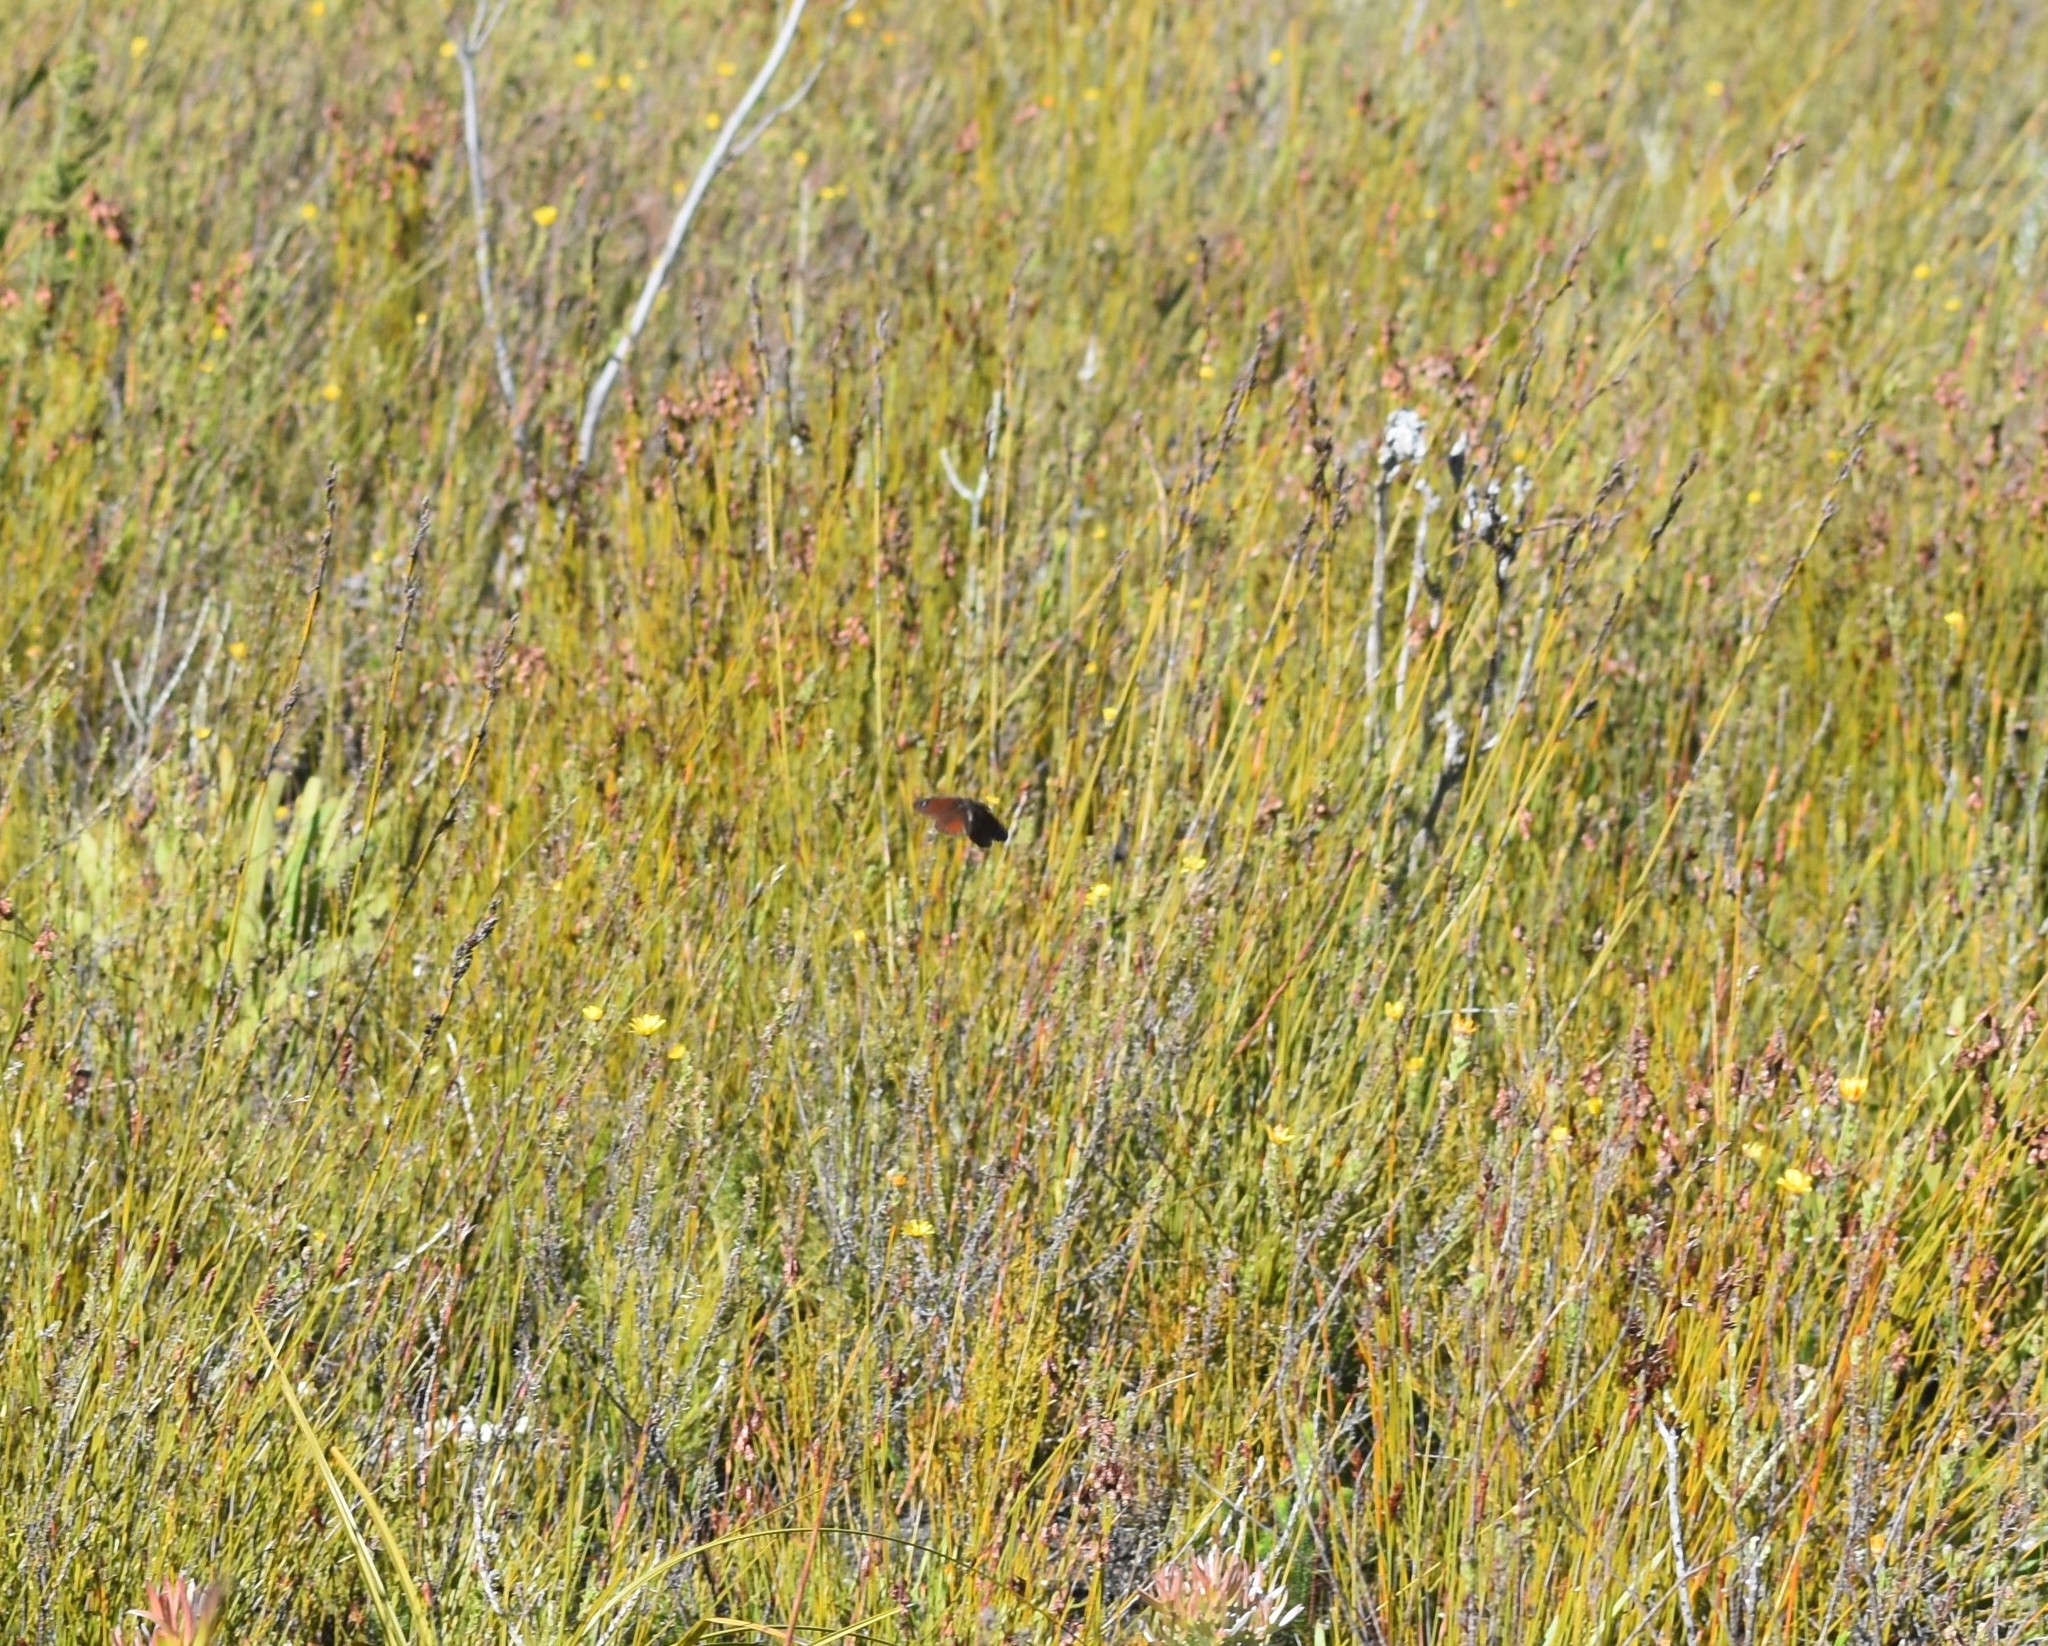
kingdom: Animalia
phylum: Arthropoda
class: Insecta
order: Lepidoptera
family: Nymphalidae
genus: Pseudonympha
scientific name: Pseudonympha magus
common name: Silver-bottom brown
